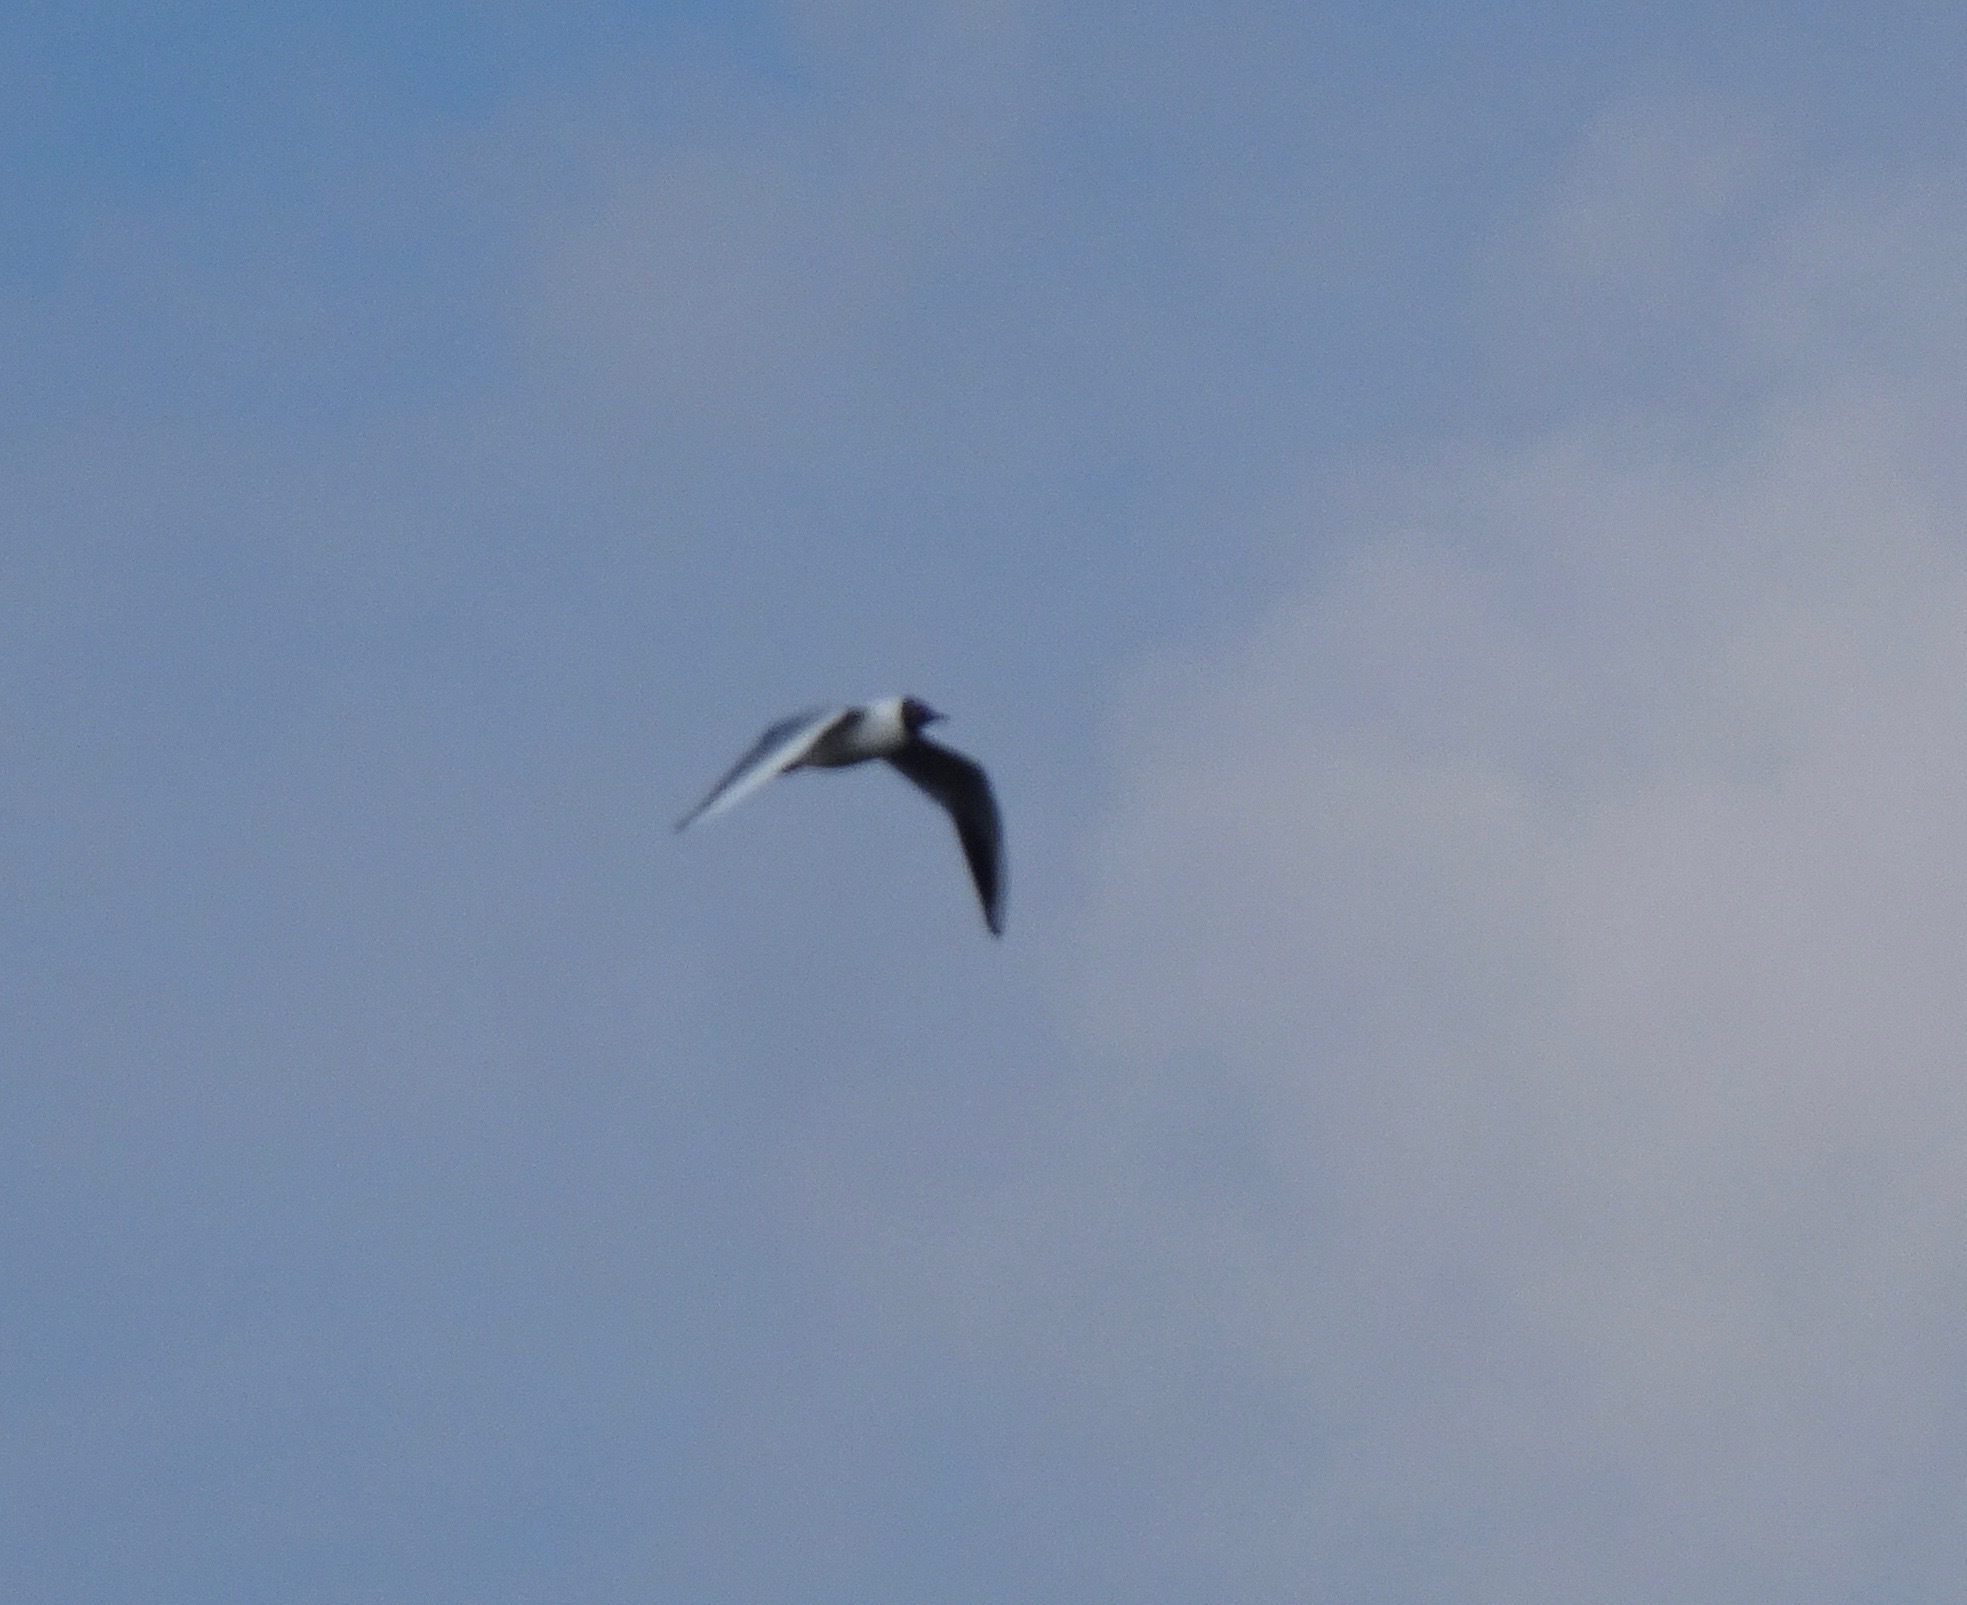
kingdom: Animalia
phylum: Chordata
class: Aves
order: Charadriiformes
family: Laridae
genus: Chroicocephalus
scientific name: Chroicocephalus ridibundus
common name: Black-headed gull
